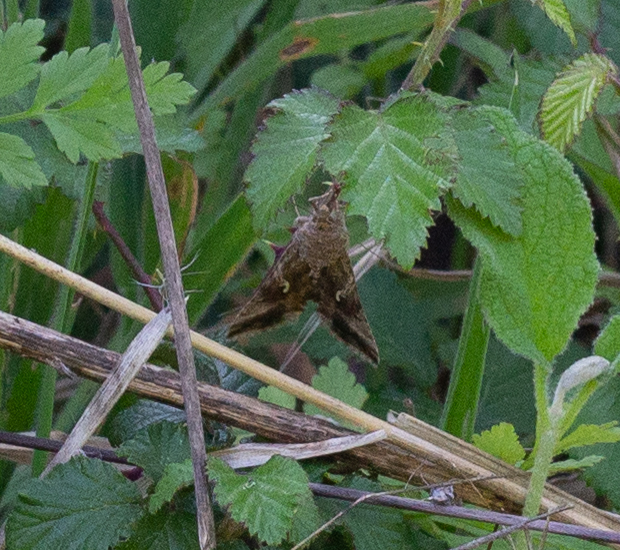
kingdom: Animalia
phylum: Arthropoda
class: Insecta
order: Lepidoptera
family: Noctuidae
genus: Autographa
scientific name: Autographa gamma
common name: Silver y
